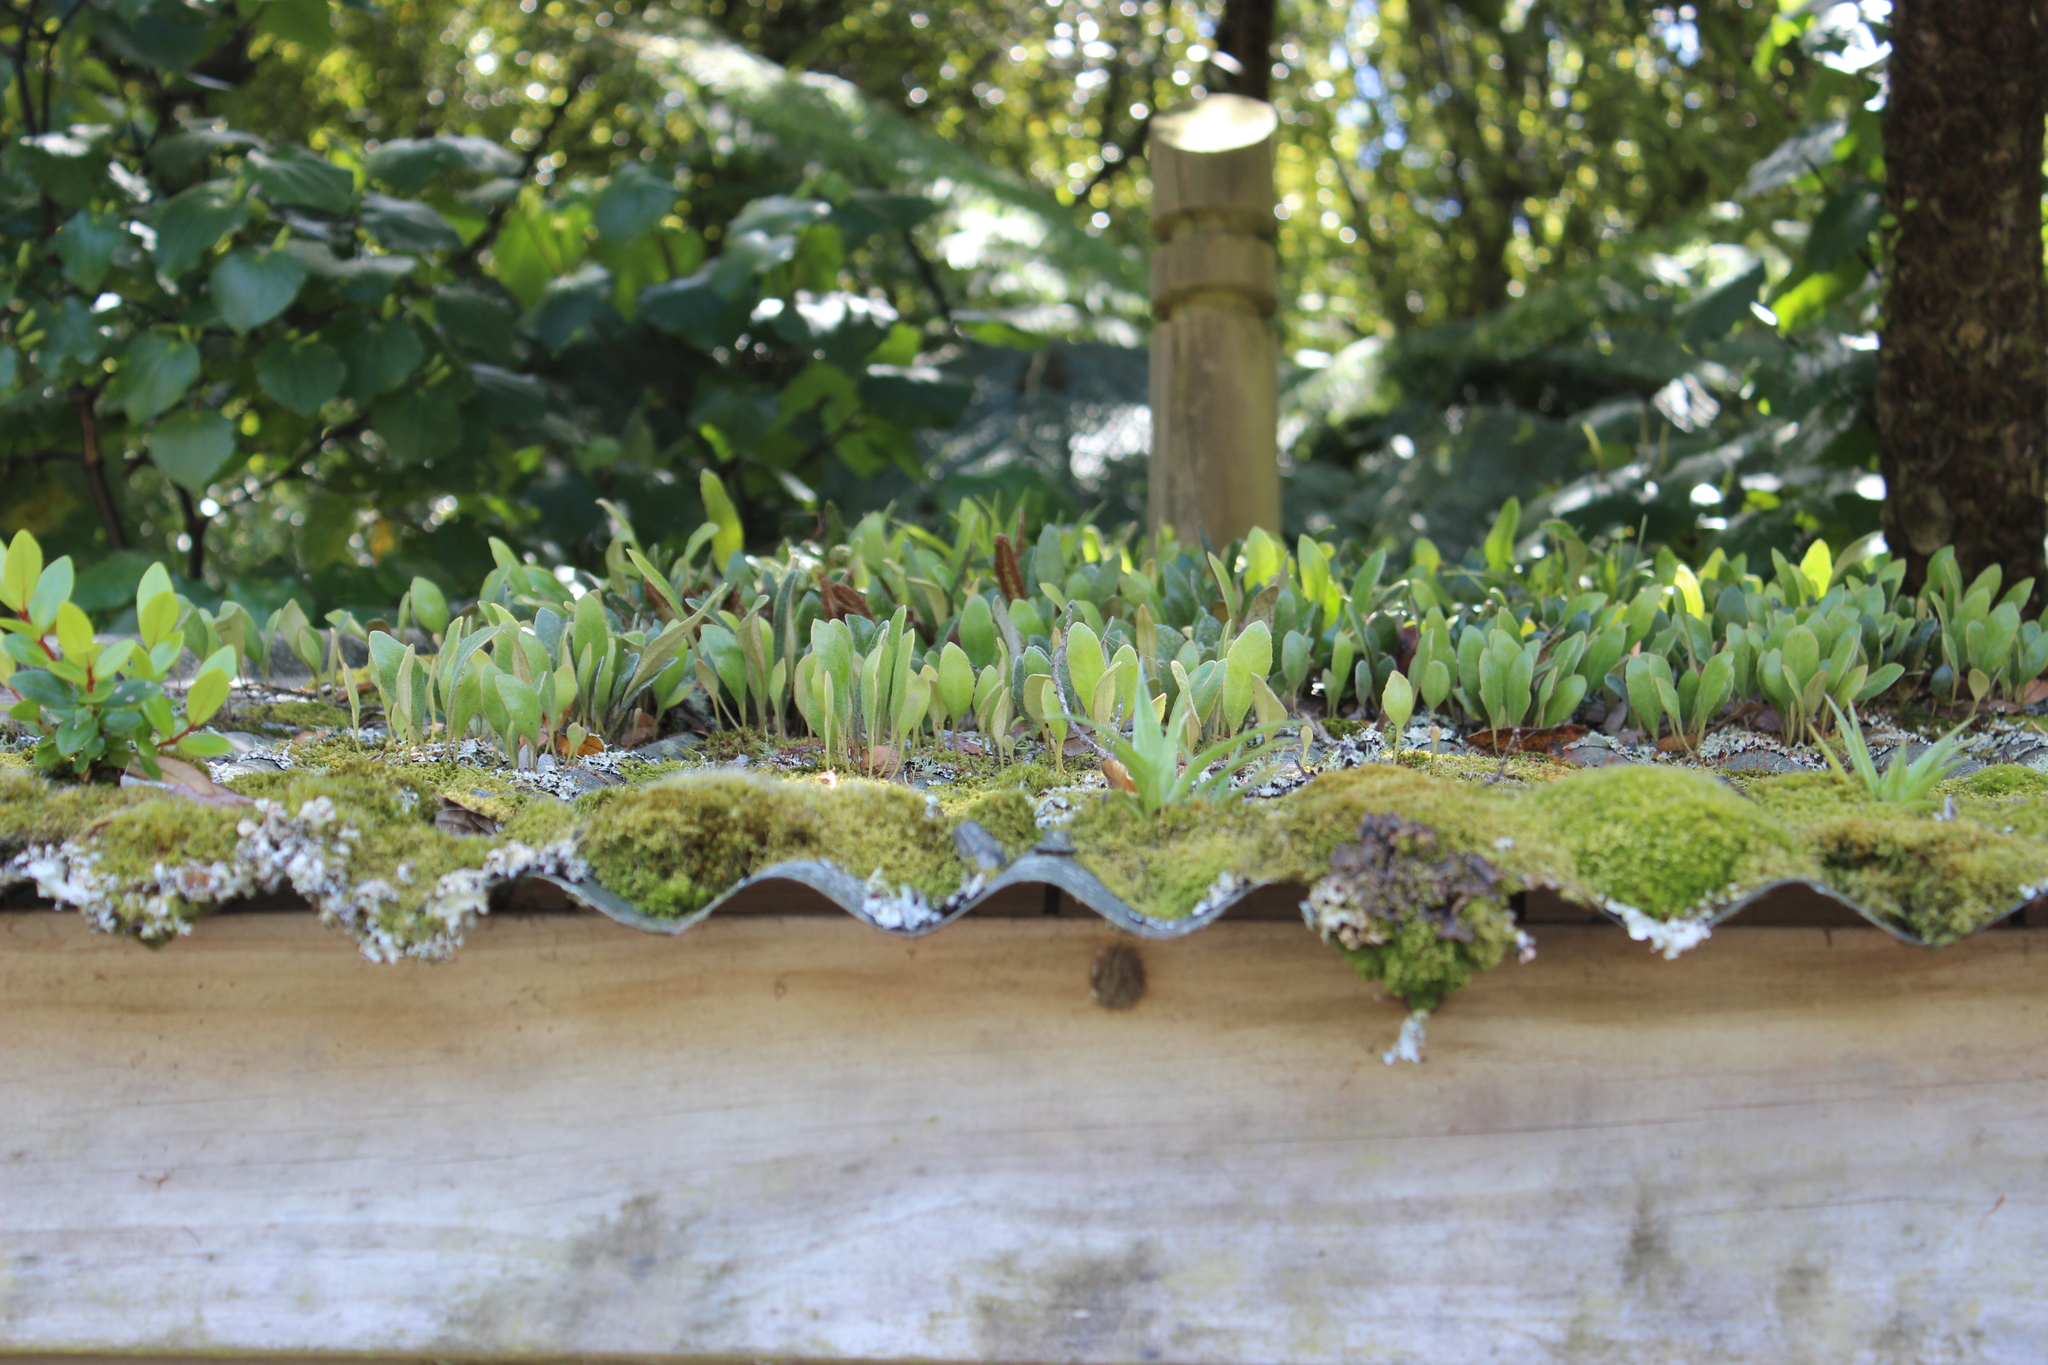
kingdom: Plantae
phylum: Tracheophyta
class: Polypodiopsida
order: Polypodiales
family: Polypodiaceae
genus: Pyrrosia
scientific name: Pyrrosia eleagnifolia
